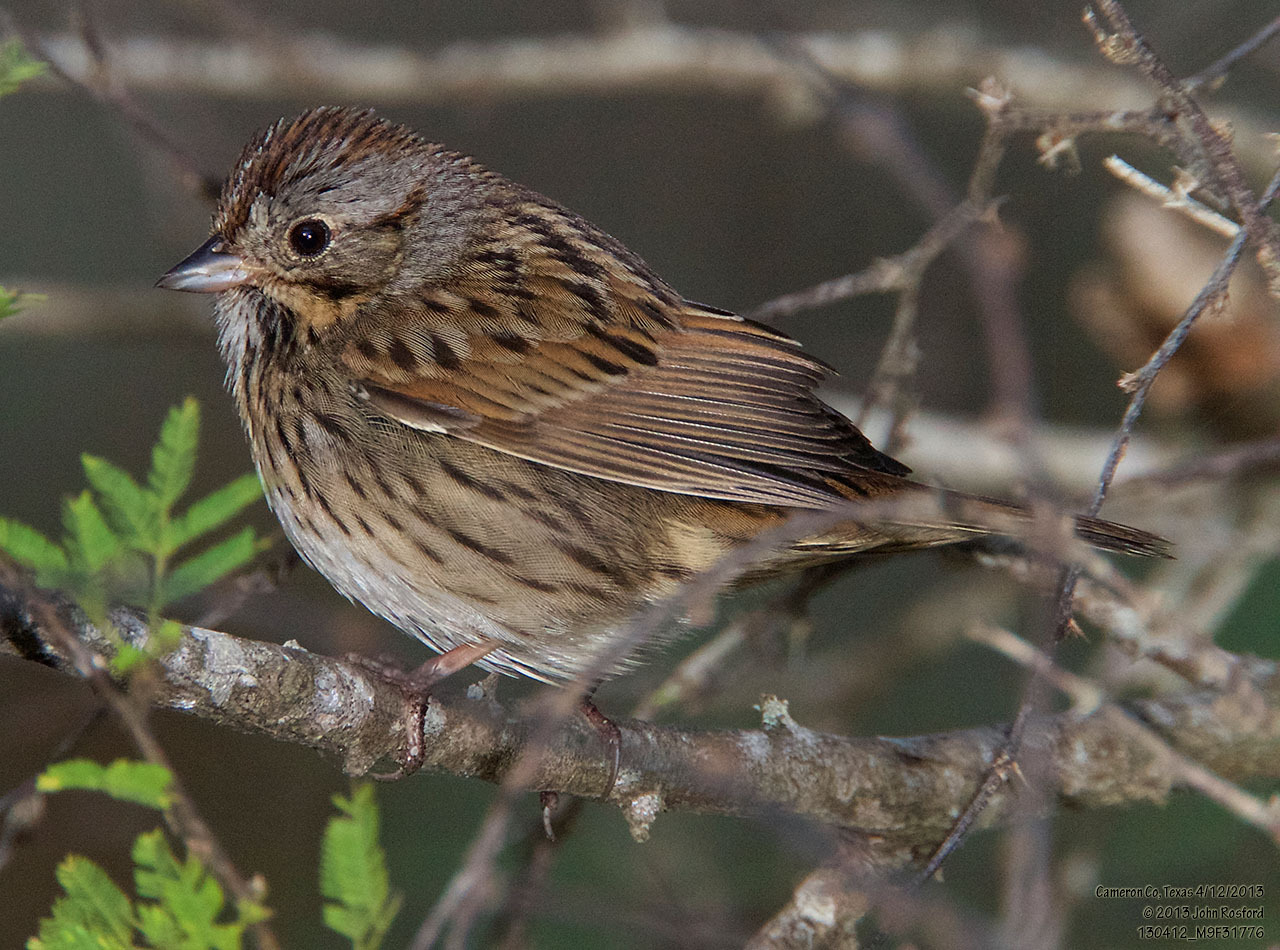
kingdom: Animalia
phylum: Chordata
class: Aves
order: Passeriformes
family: Passerellidae
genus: Melospiza
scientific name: Melospiza lincolnii
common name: Lincoln's sparrow
